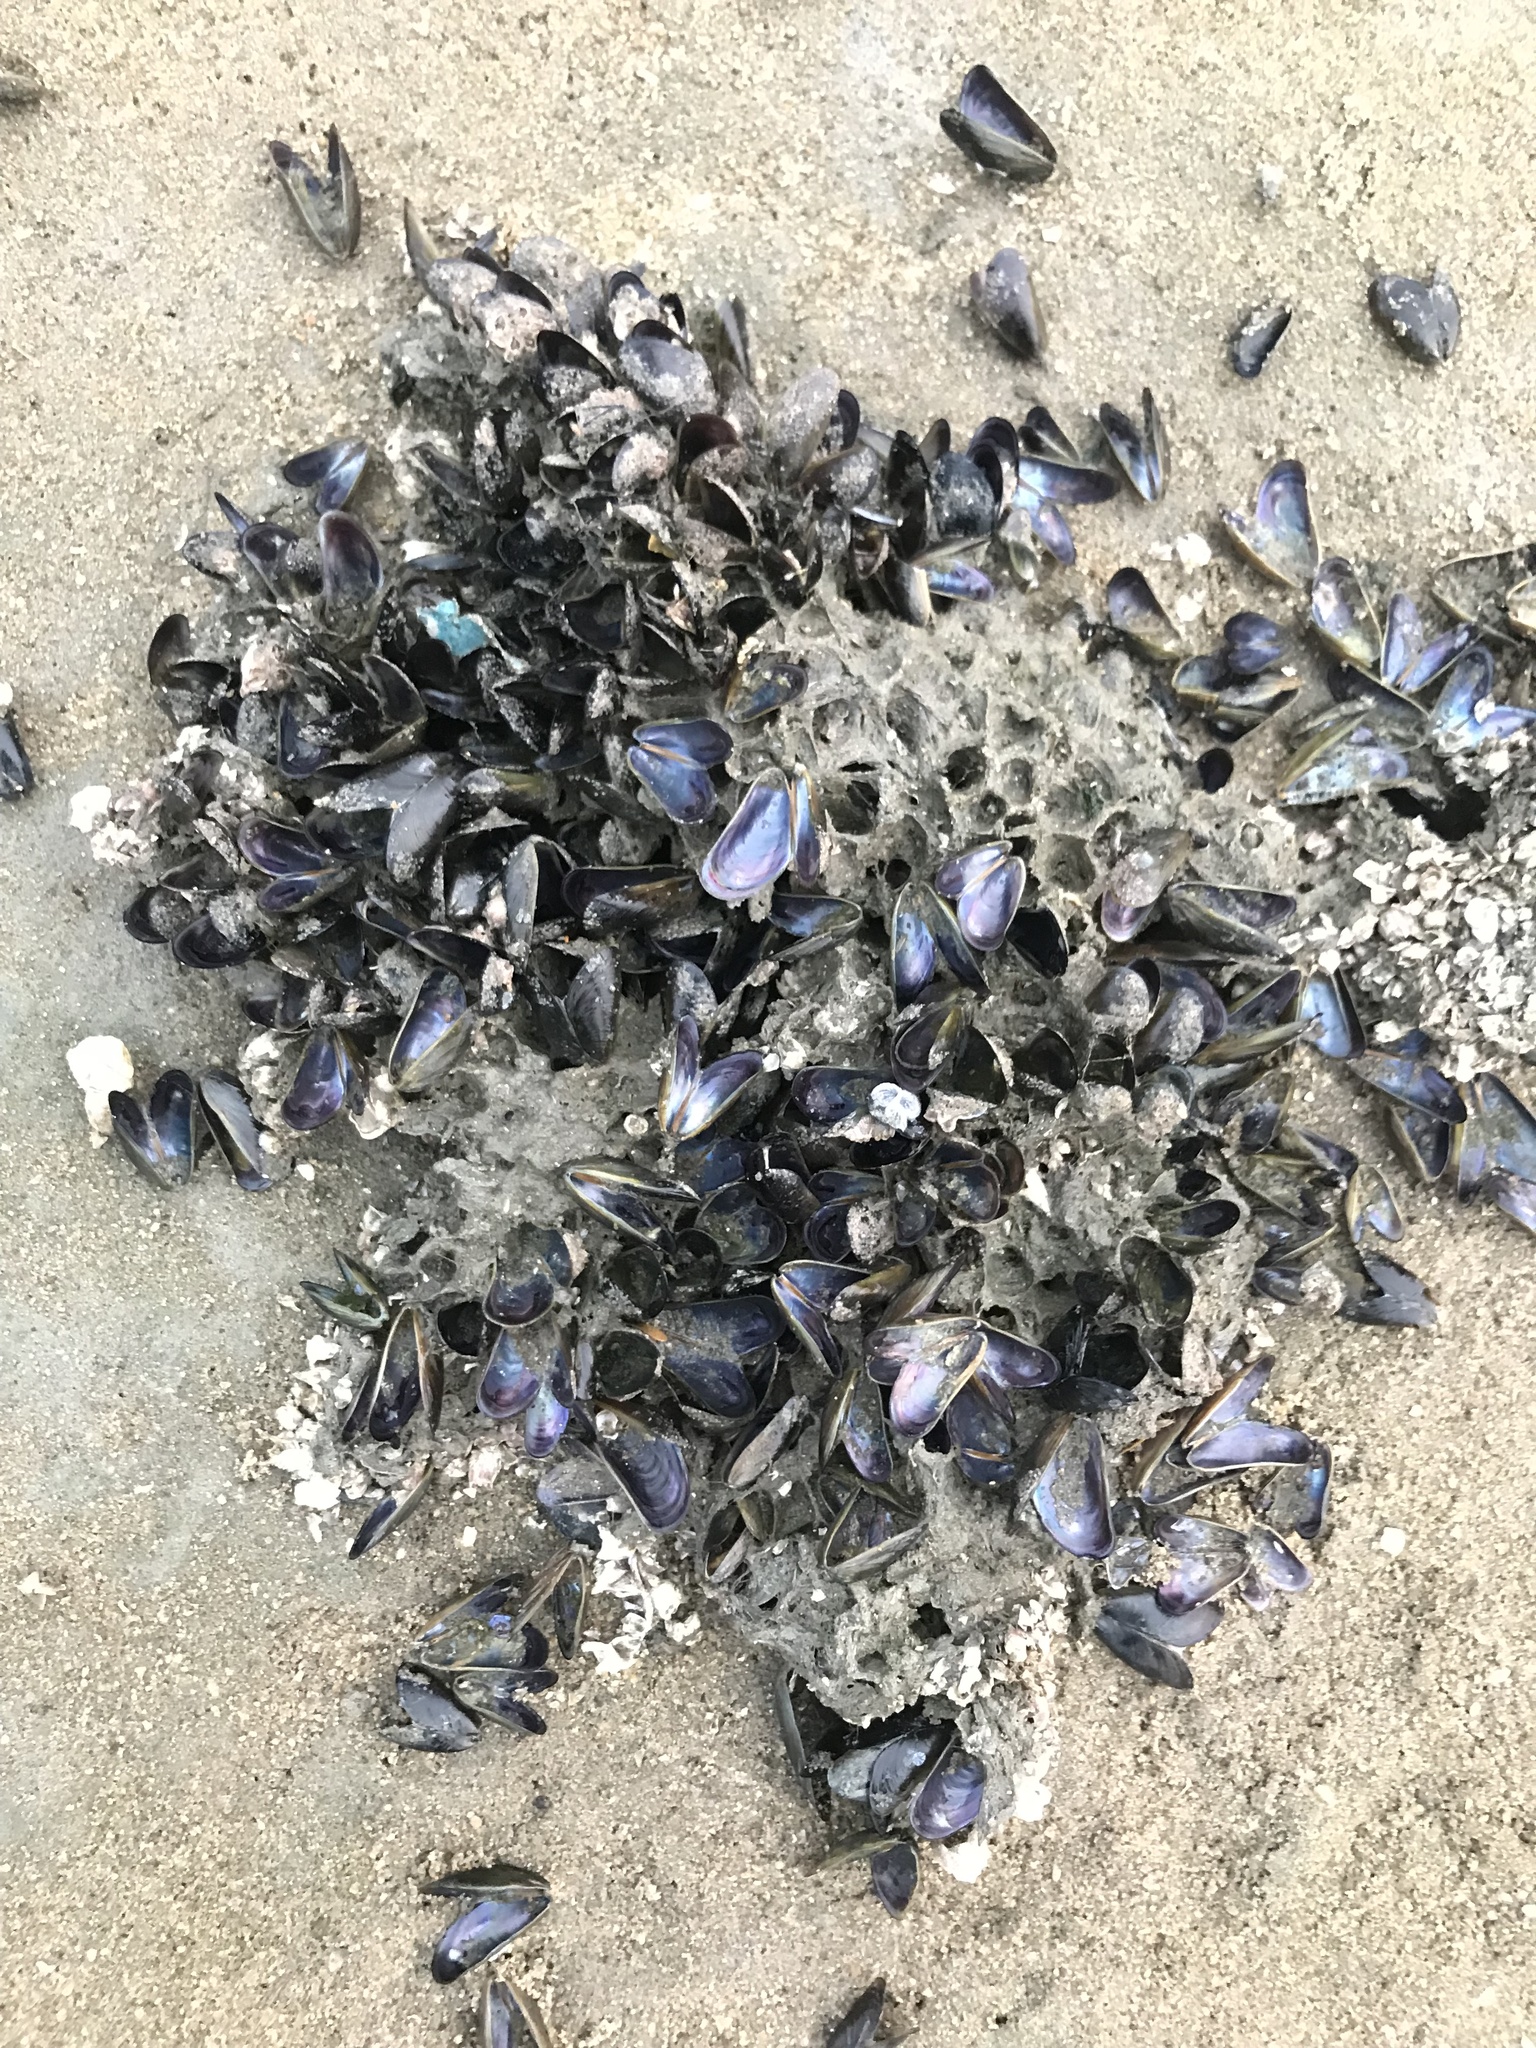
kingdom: Animalia
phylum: Mollusca
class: Bivalvia
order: Mytilida
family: Mytilidae
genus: Perna
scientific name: Perna viridis
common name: Green mussel
